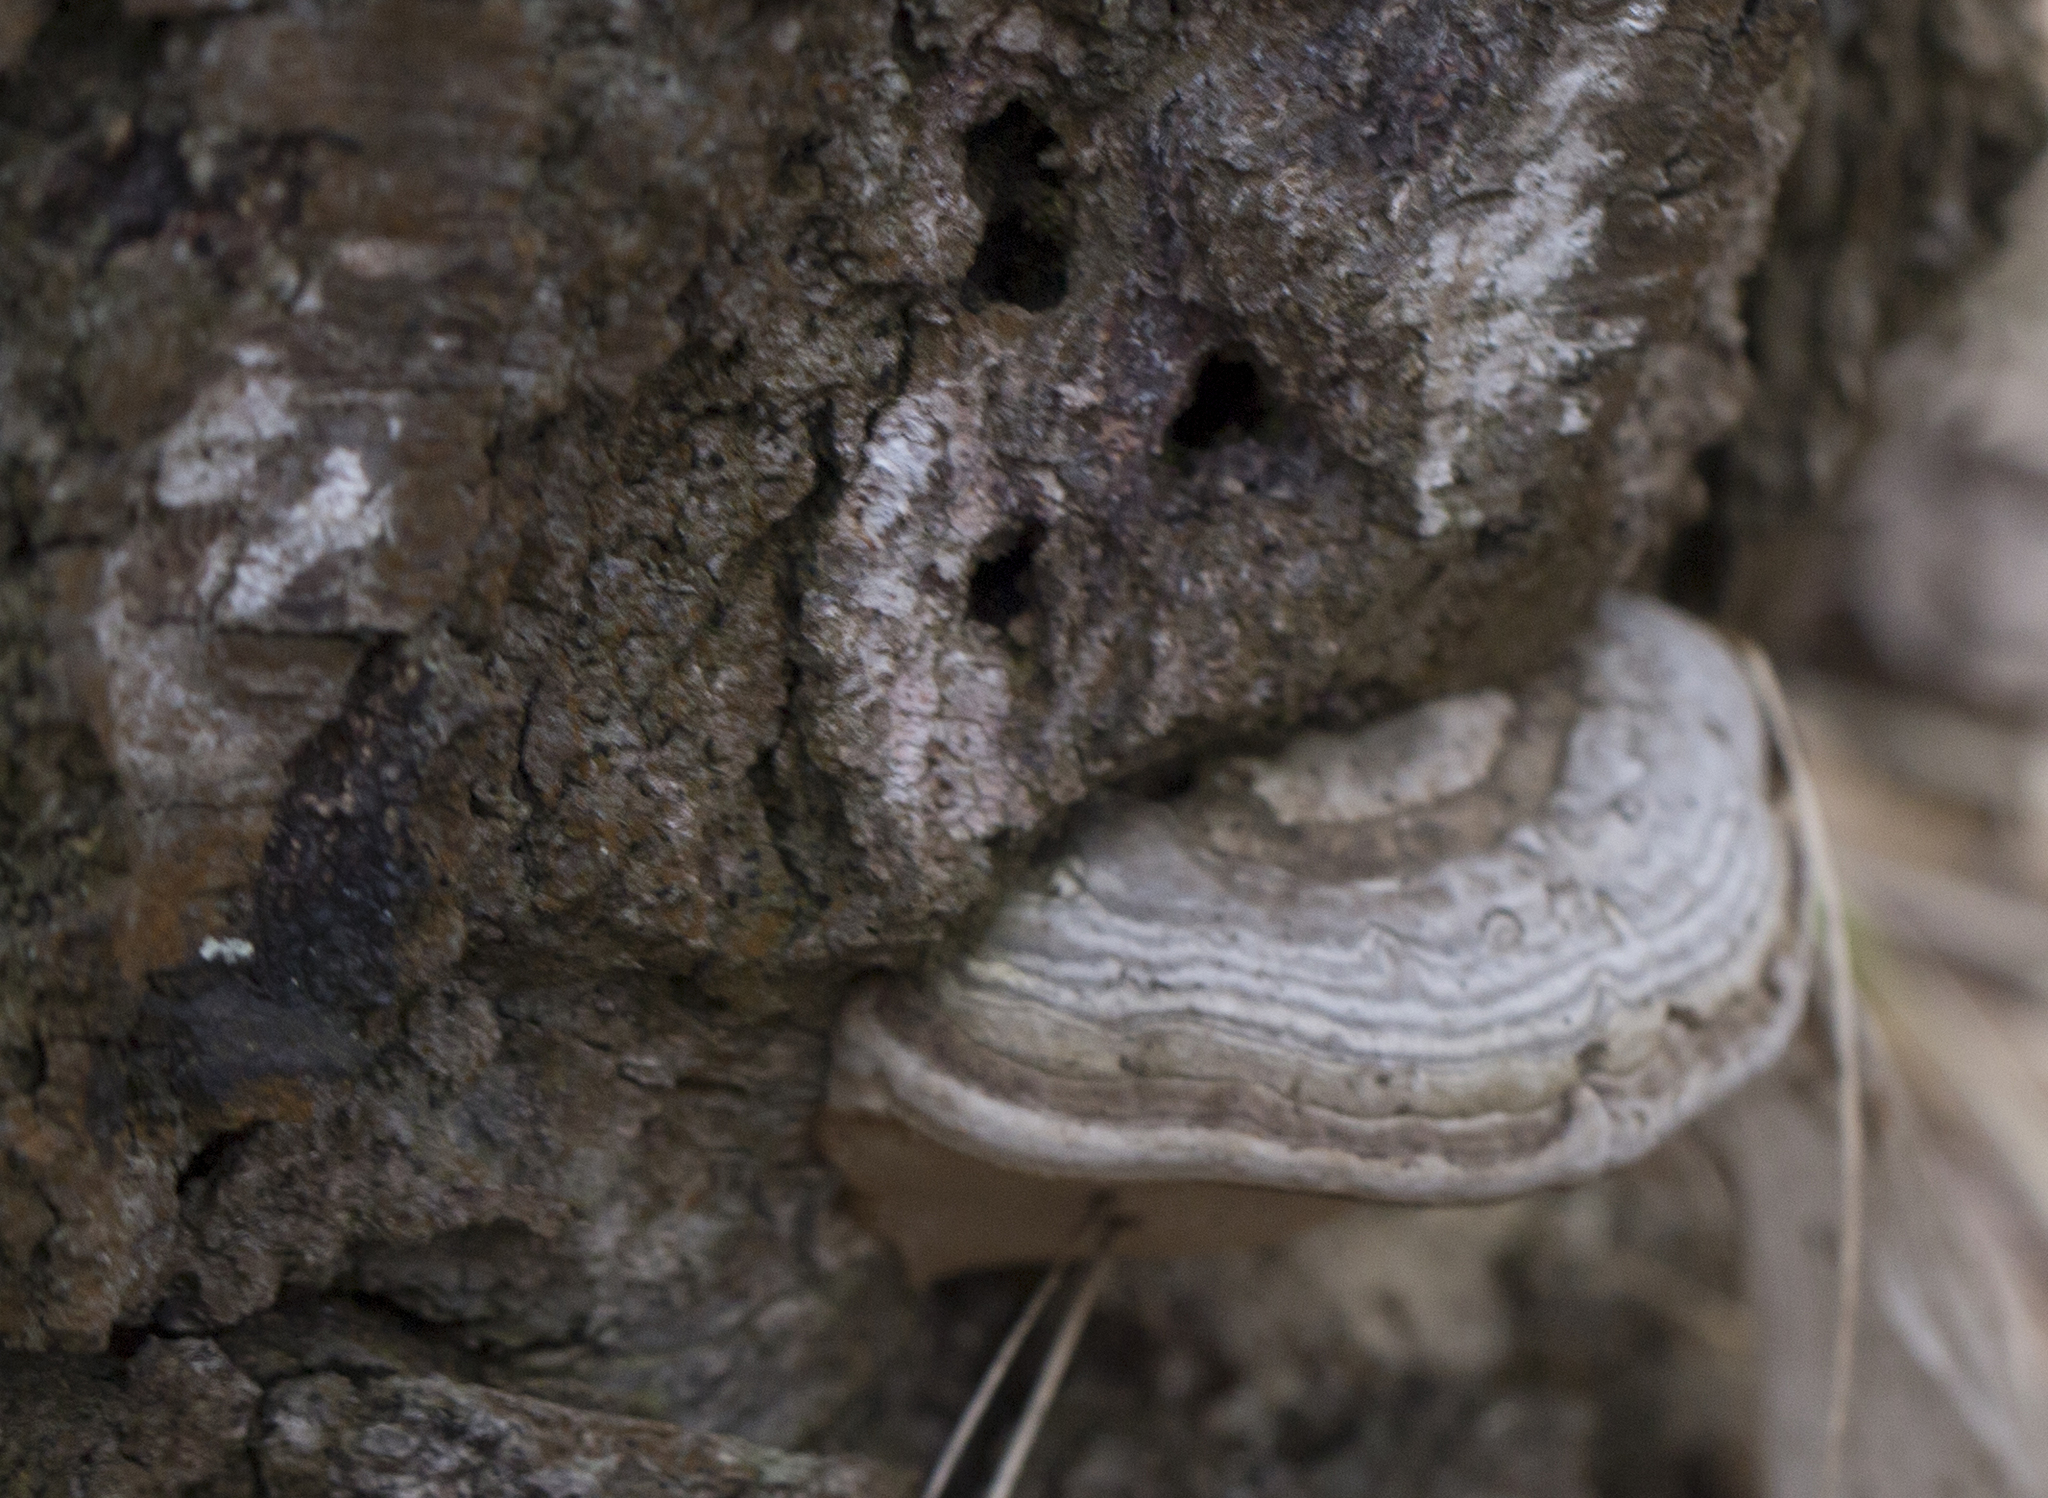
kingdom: Fungi
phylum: Basidiomycota
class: Agaricomycetes
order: Polyporales
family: Polyporaceae
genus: Fomes
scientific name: Fomes fomentarius
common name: Hoof fungus
